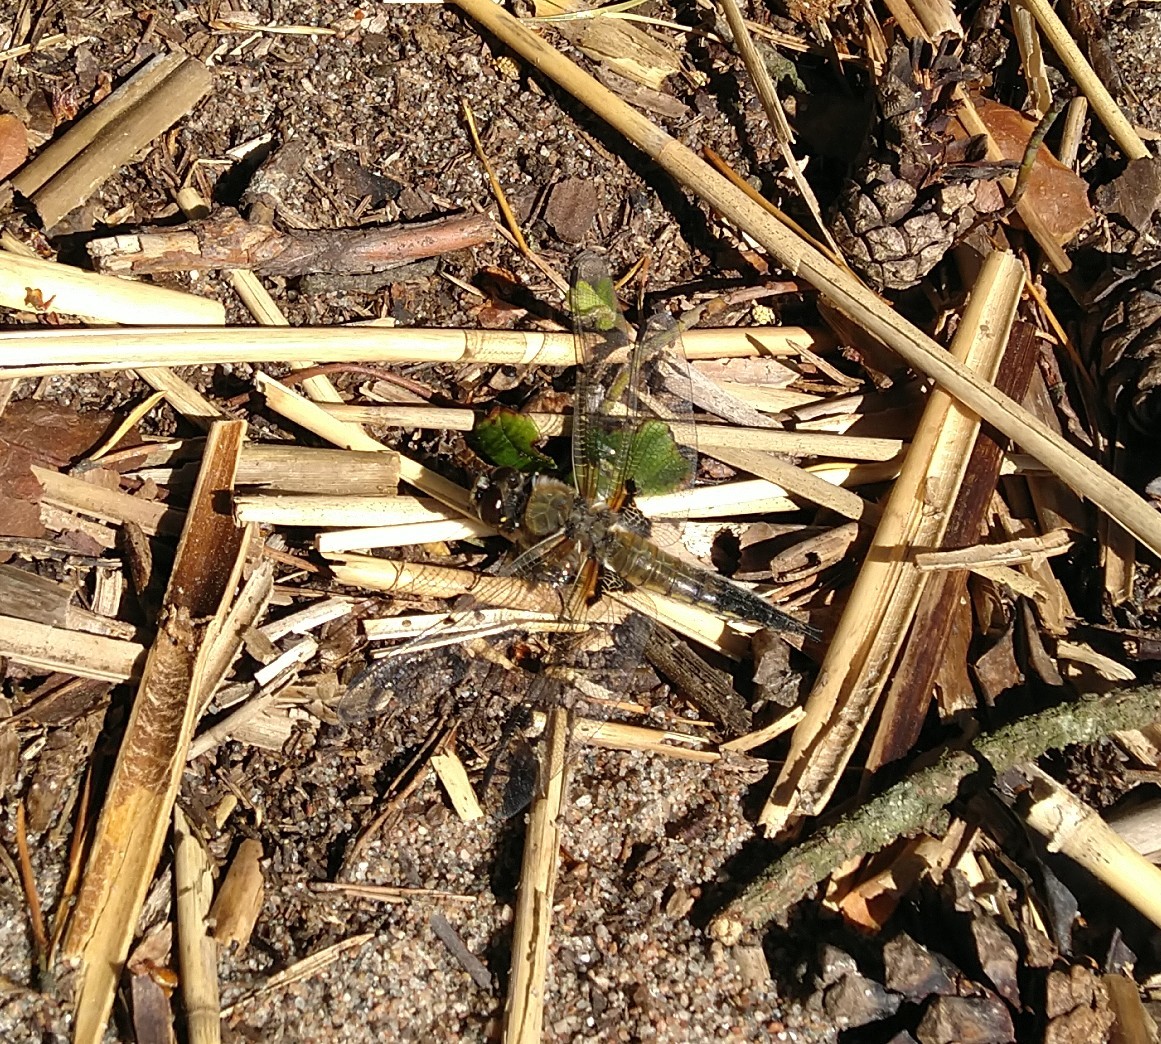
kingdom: Animalia
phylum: Arthropoda
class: Insecta
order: Odonata
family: Libellulidae
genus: Libellula
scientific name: Libellula quadrimaculata
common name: Four-spotted chaser
